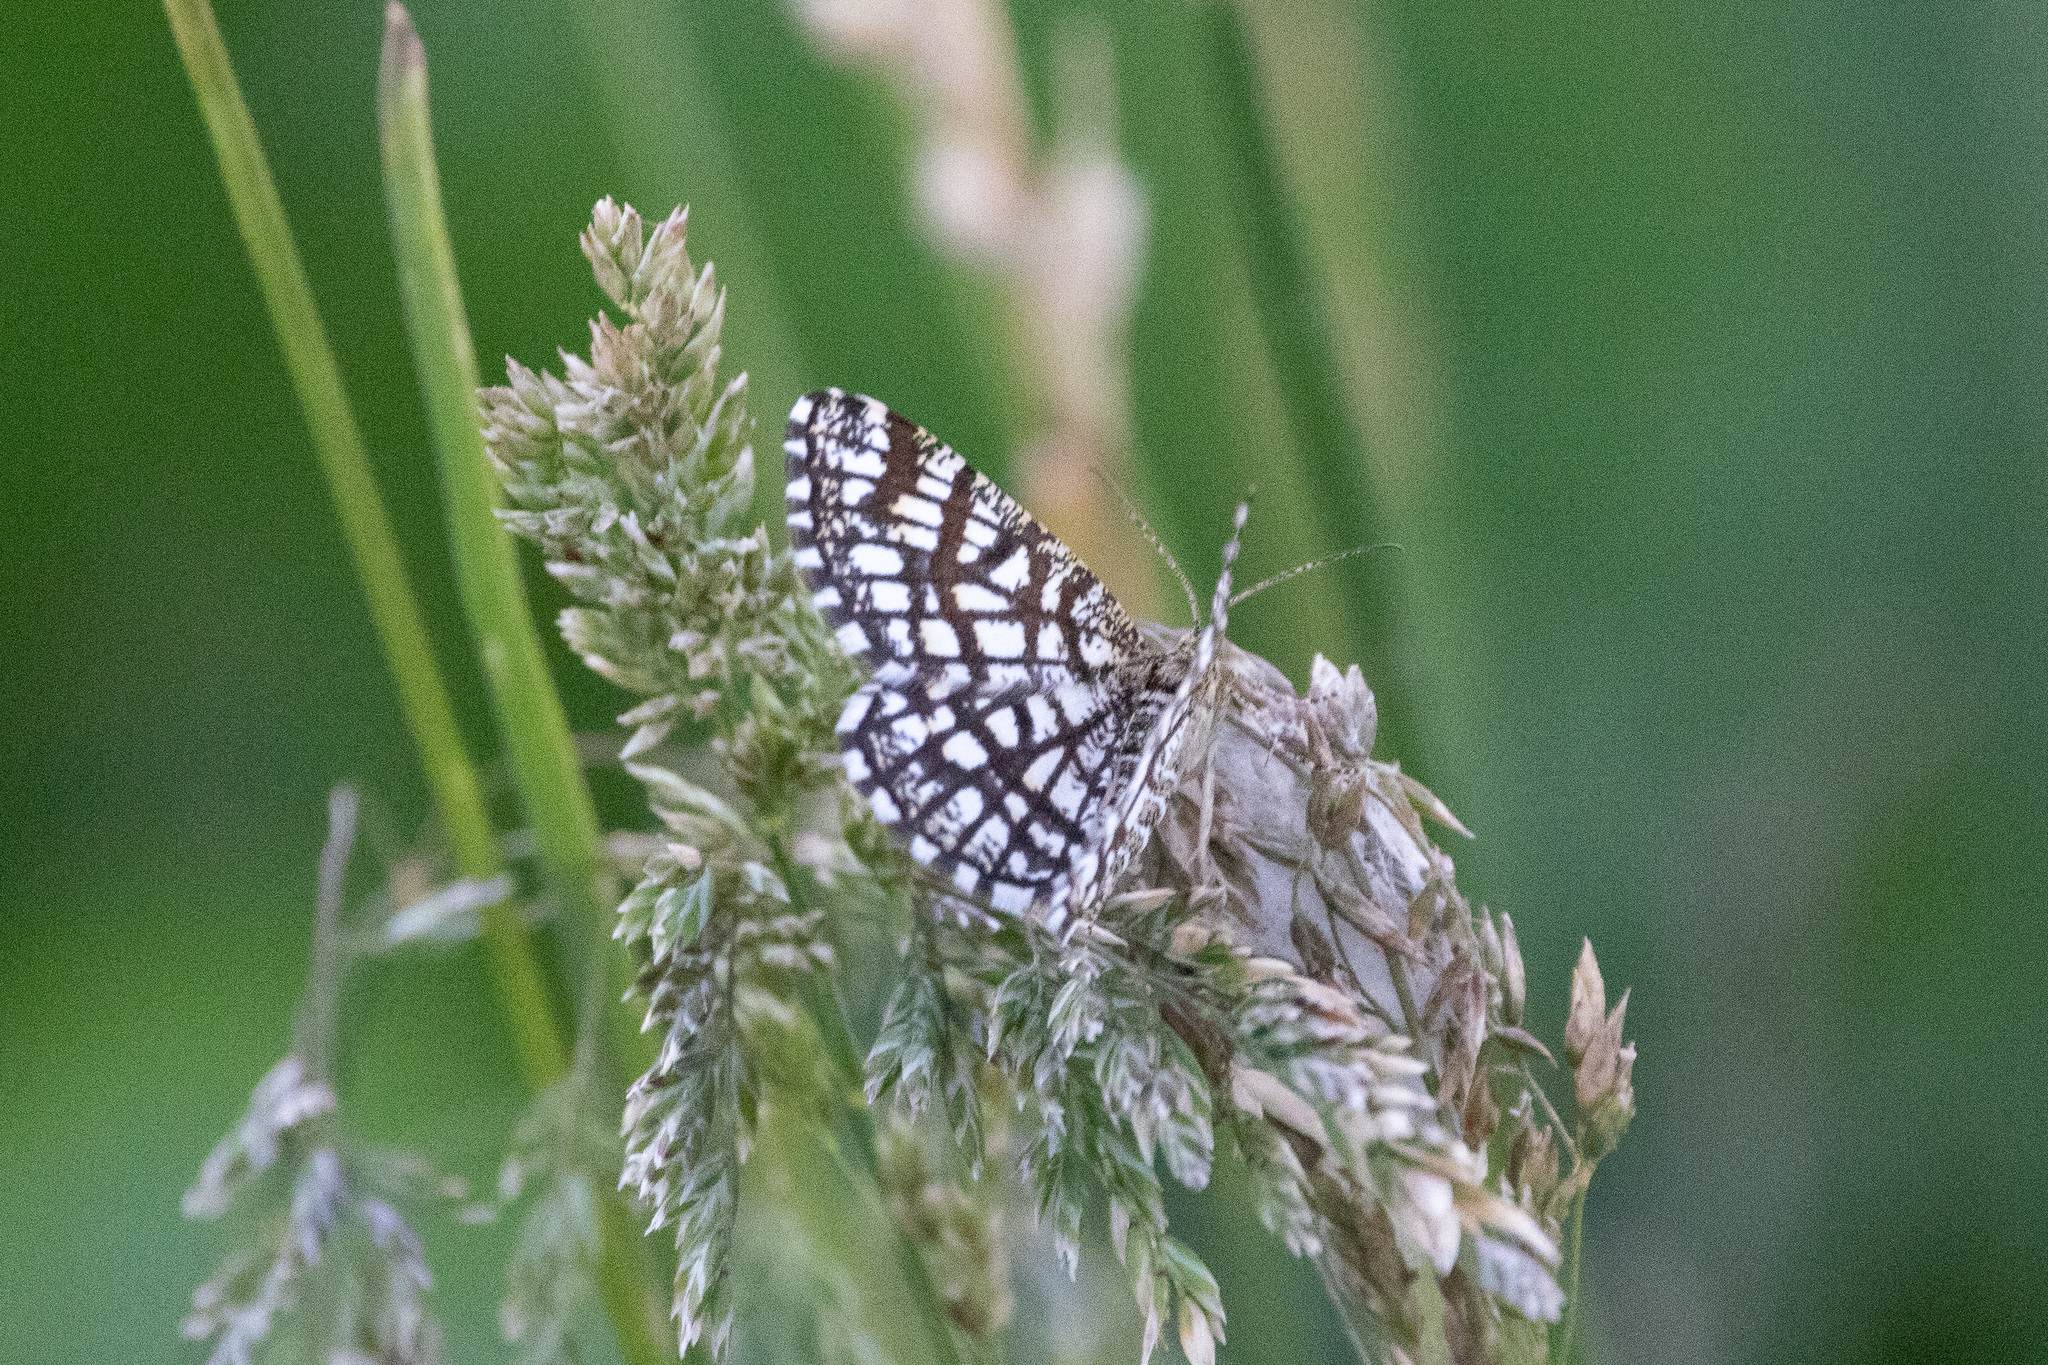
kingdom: Animalia
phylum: Arthropoda
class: Insecta
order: Lepidoptera
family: Geometridae
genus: Chiasmia
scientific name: Chiasmia clathrata
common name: Latticed heath
